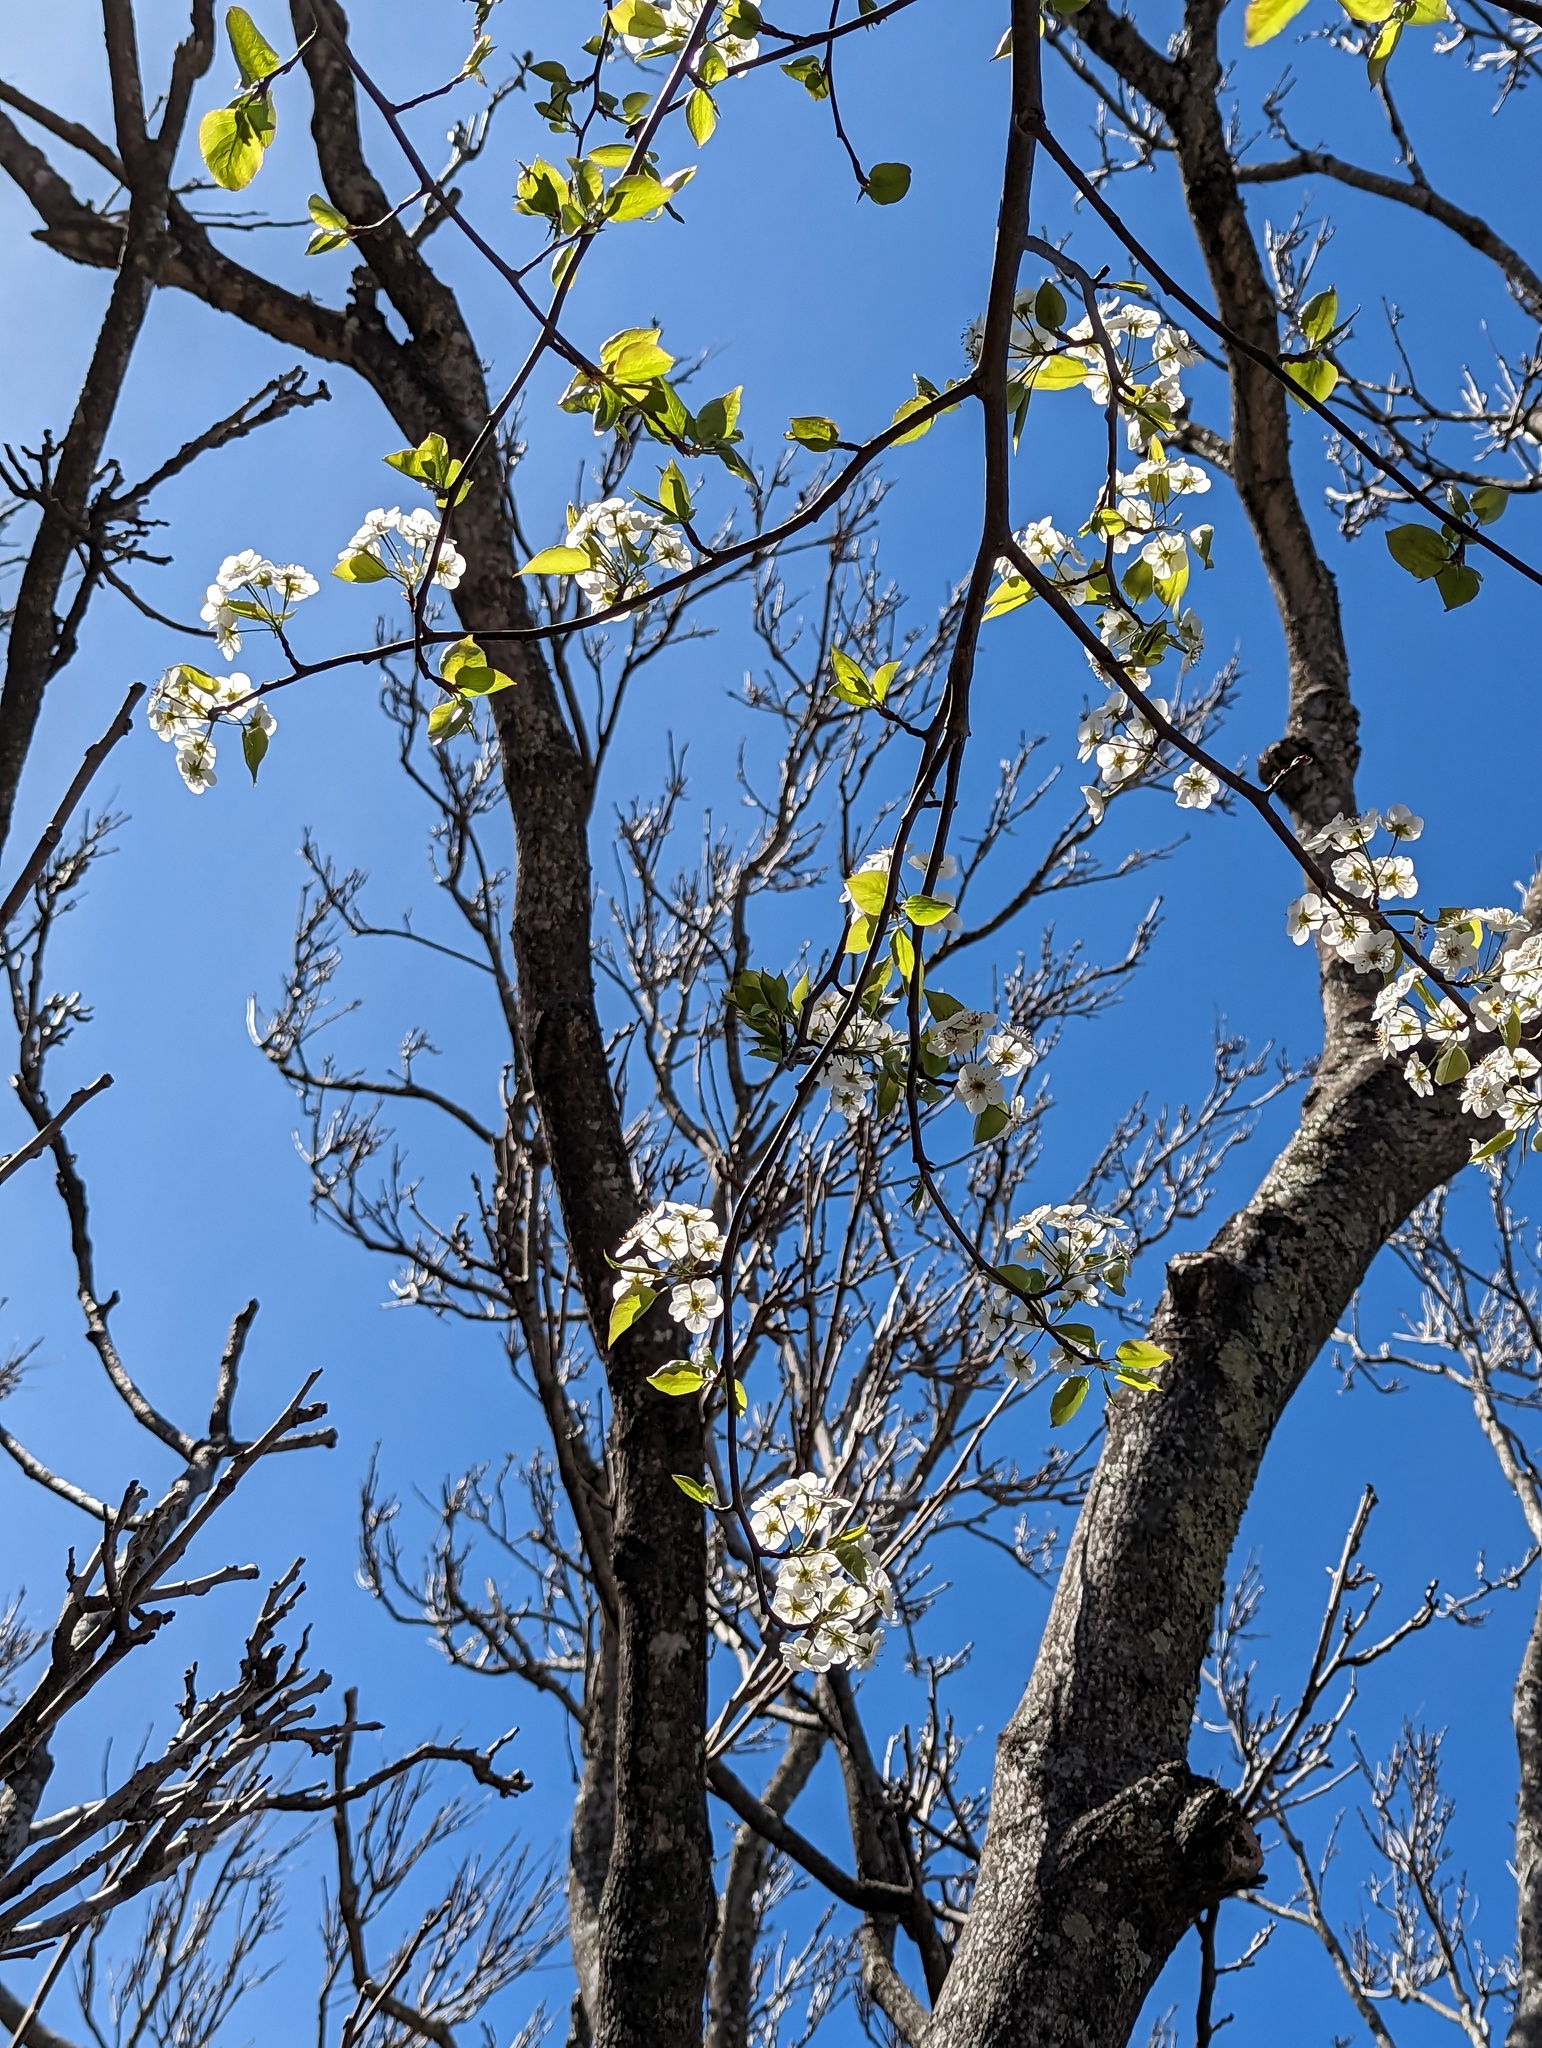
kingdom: Plantae
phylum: Tracheophyta
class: Magnoliopsida
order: Rosales
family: Rosaceae
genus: Pyrus
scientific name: Pyrus calleryana
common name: Callery pear
